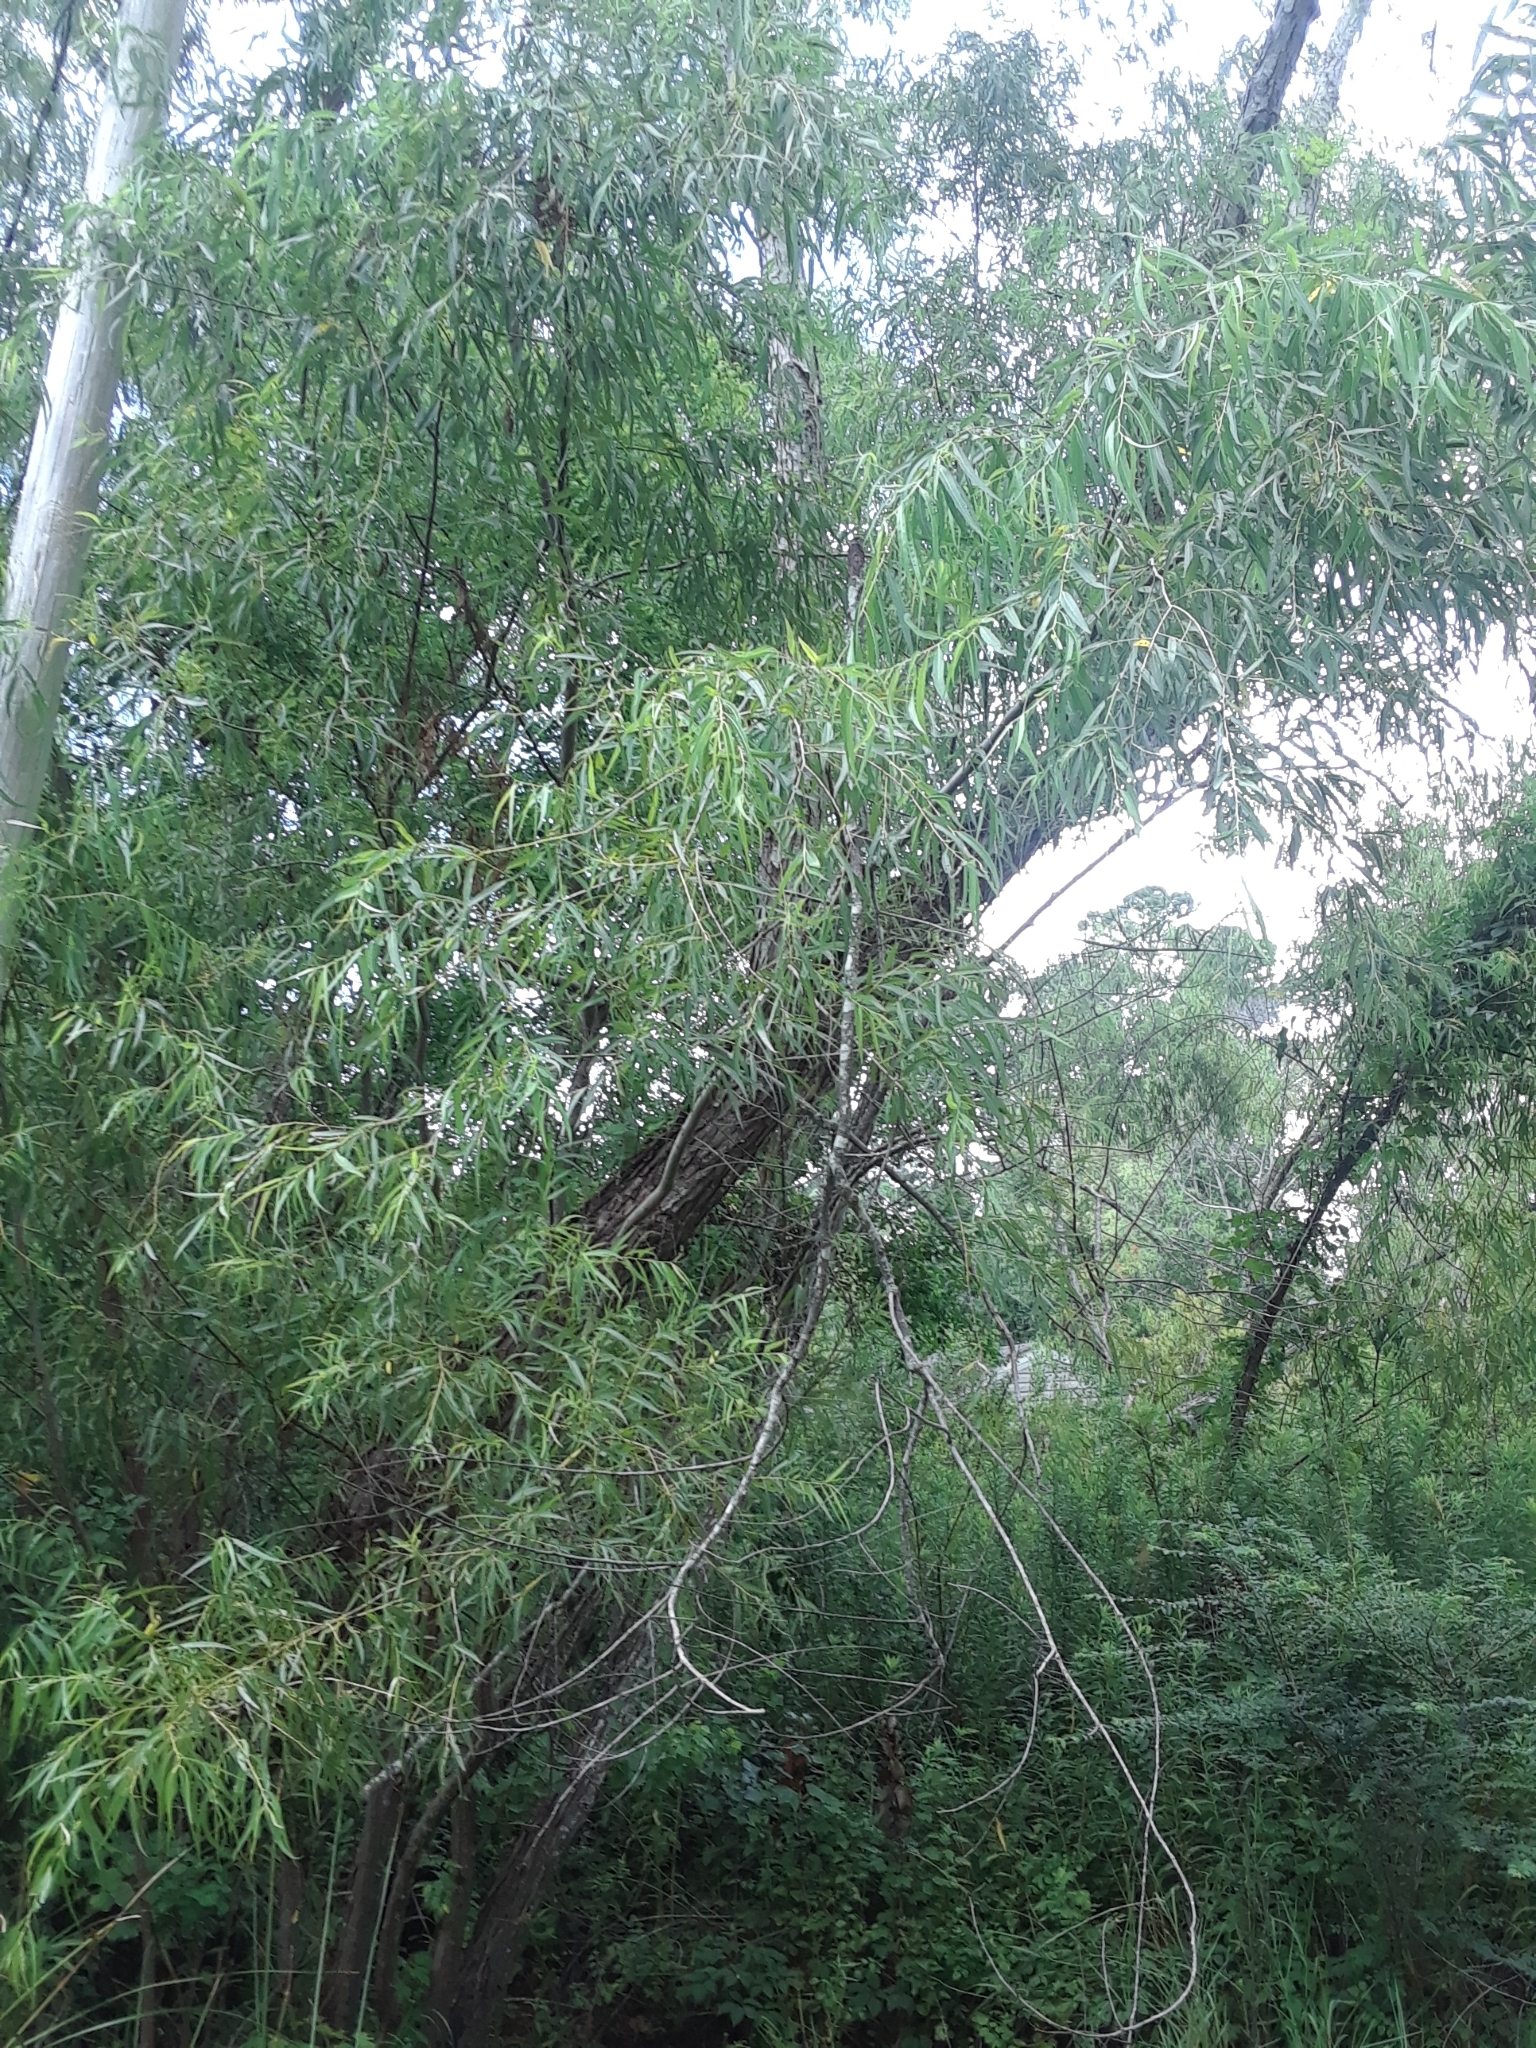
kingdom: Plantae
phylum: Tracheophyta
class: Magnoliopsida
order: Malpighiales
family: Salicaceae
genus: Salix
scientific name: Salix nigra
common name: Black willow
